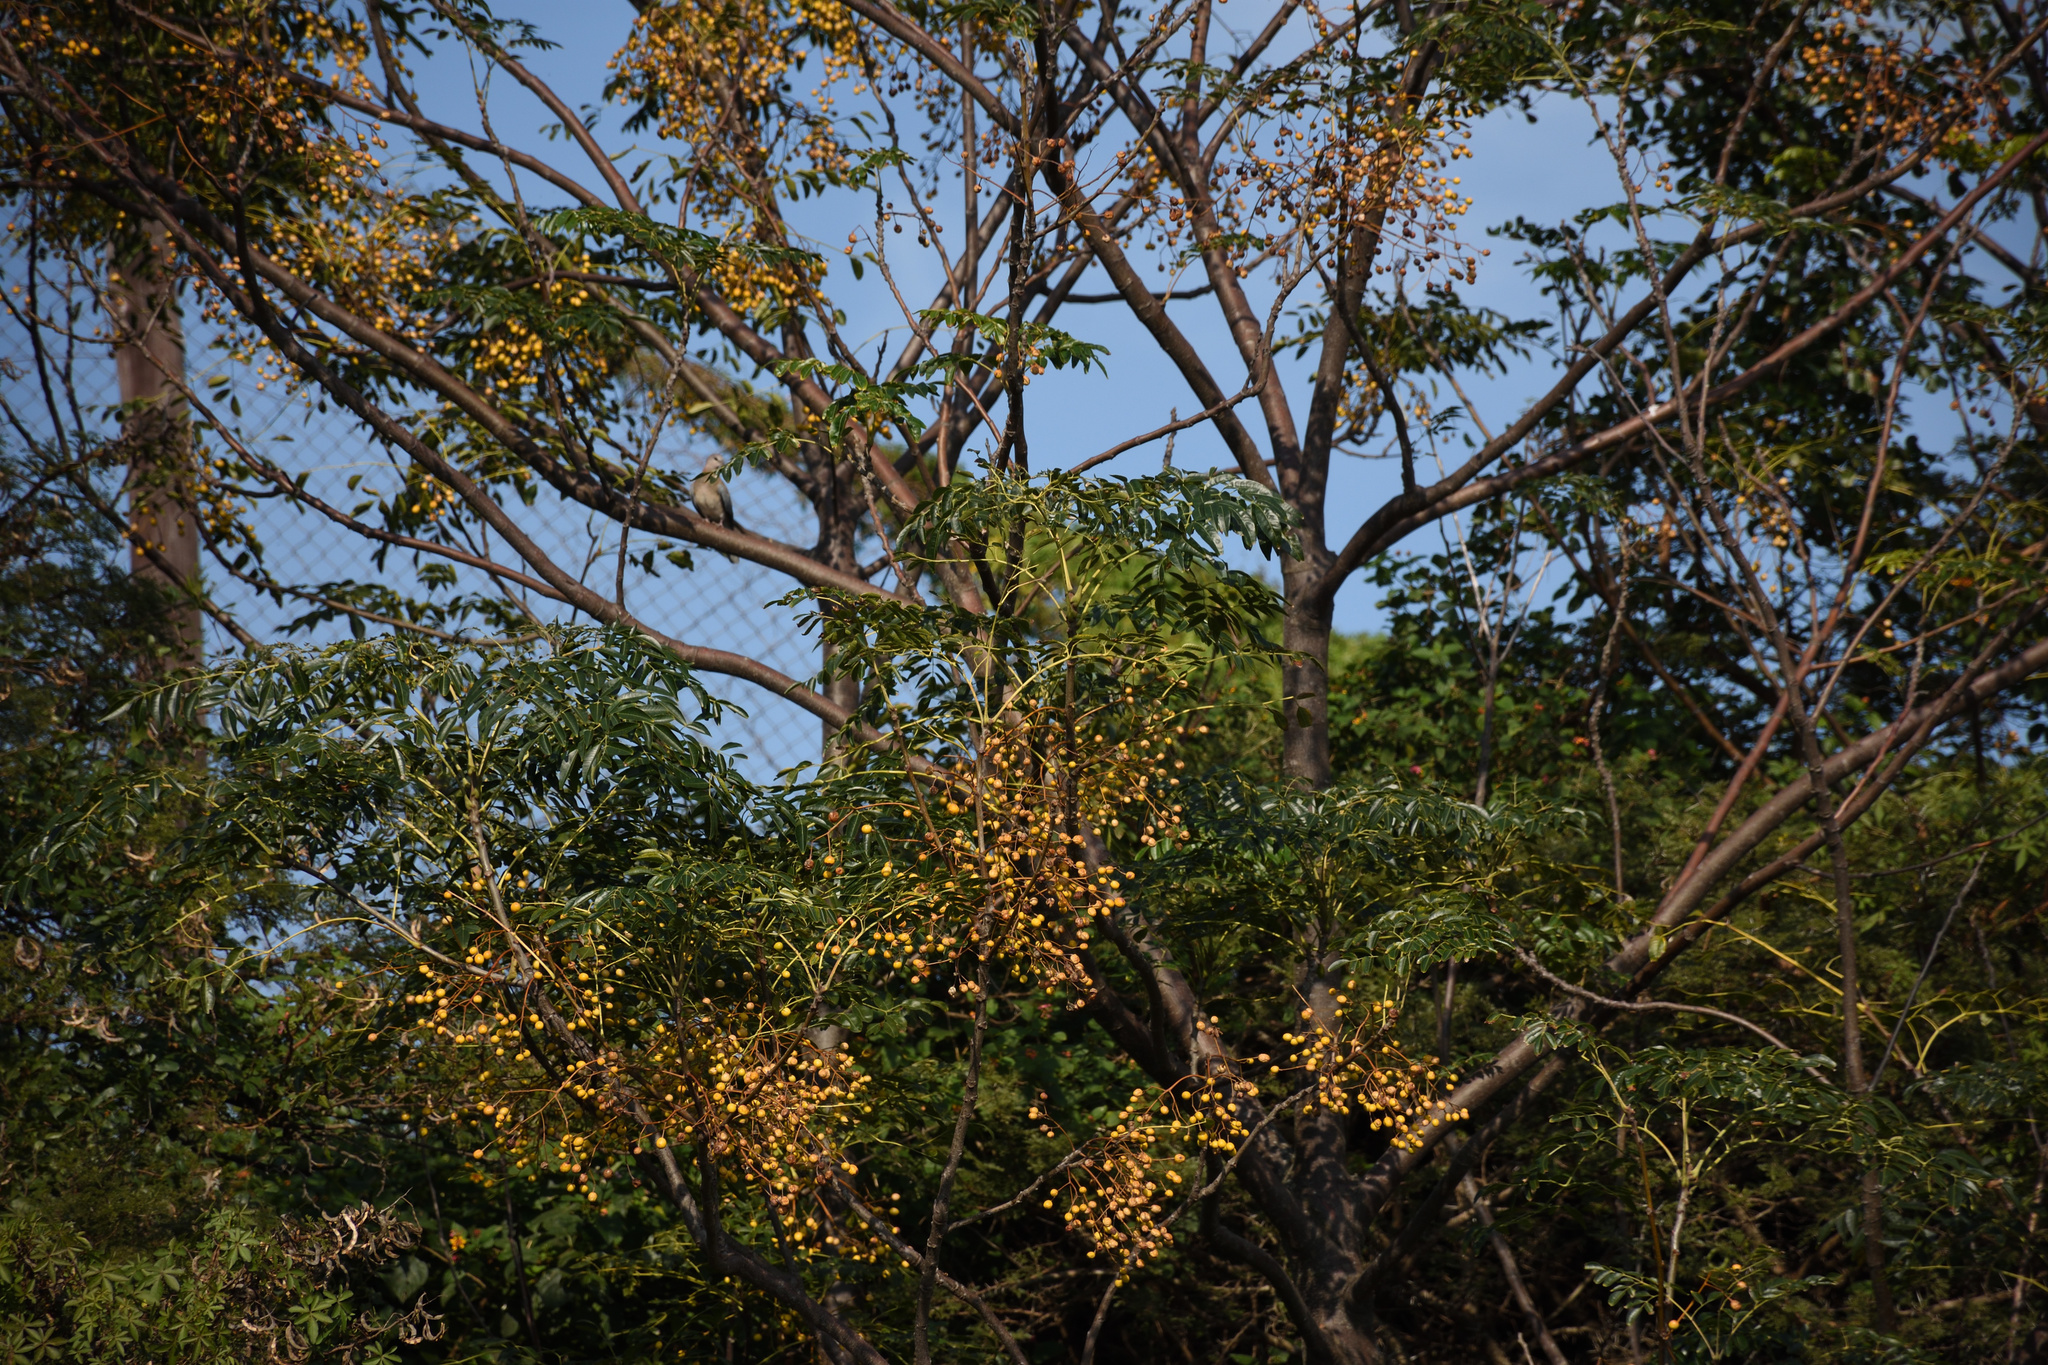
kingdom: Plantae
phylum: Tracheophyta
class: Magnoliopsida
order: Sapindales
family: Meliaceae
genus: Melia
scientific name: Melia azedarach
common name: Chinaberrytree
